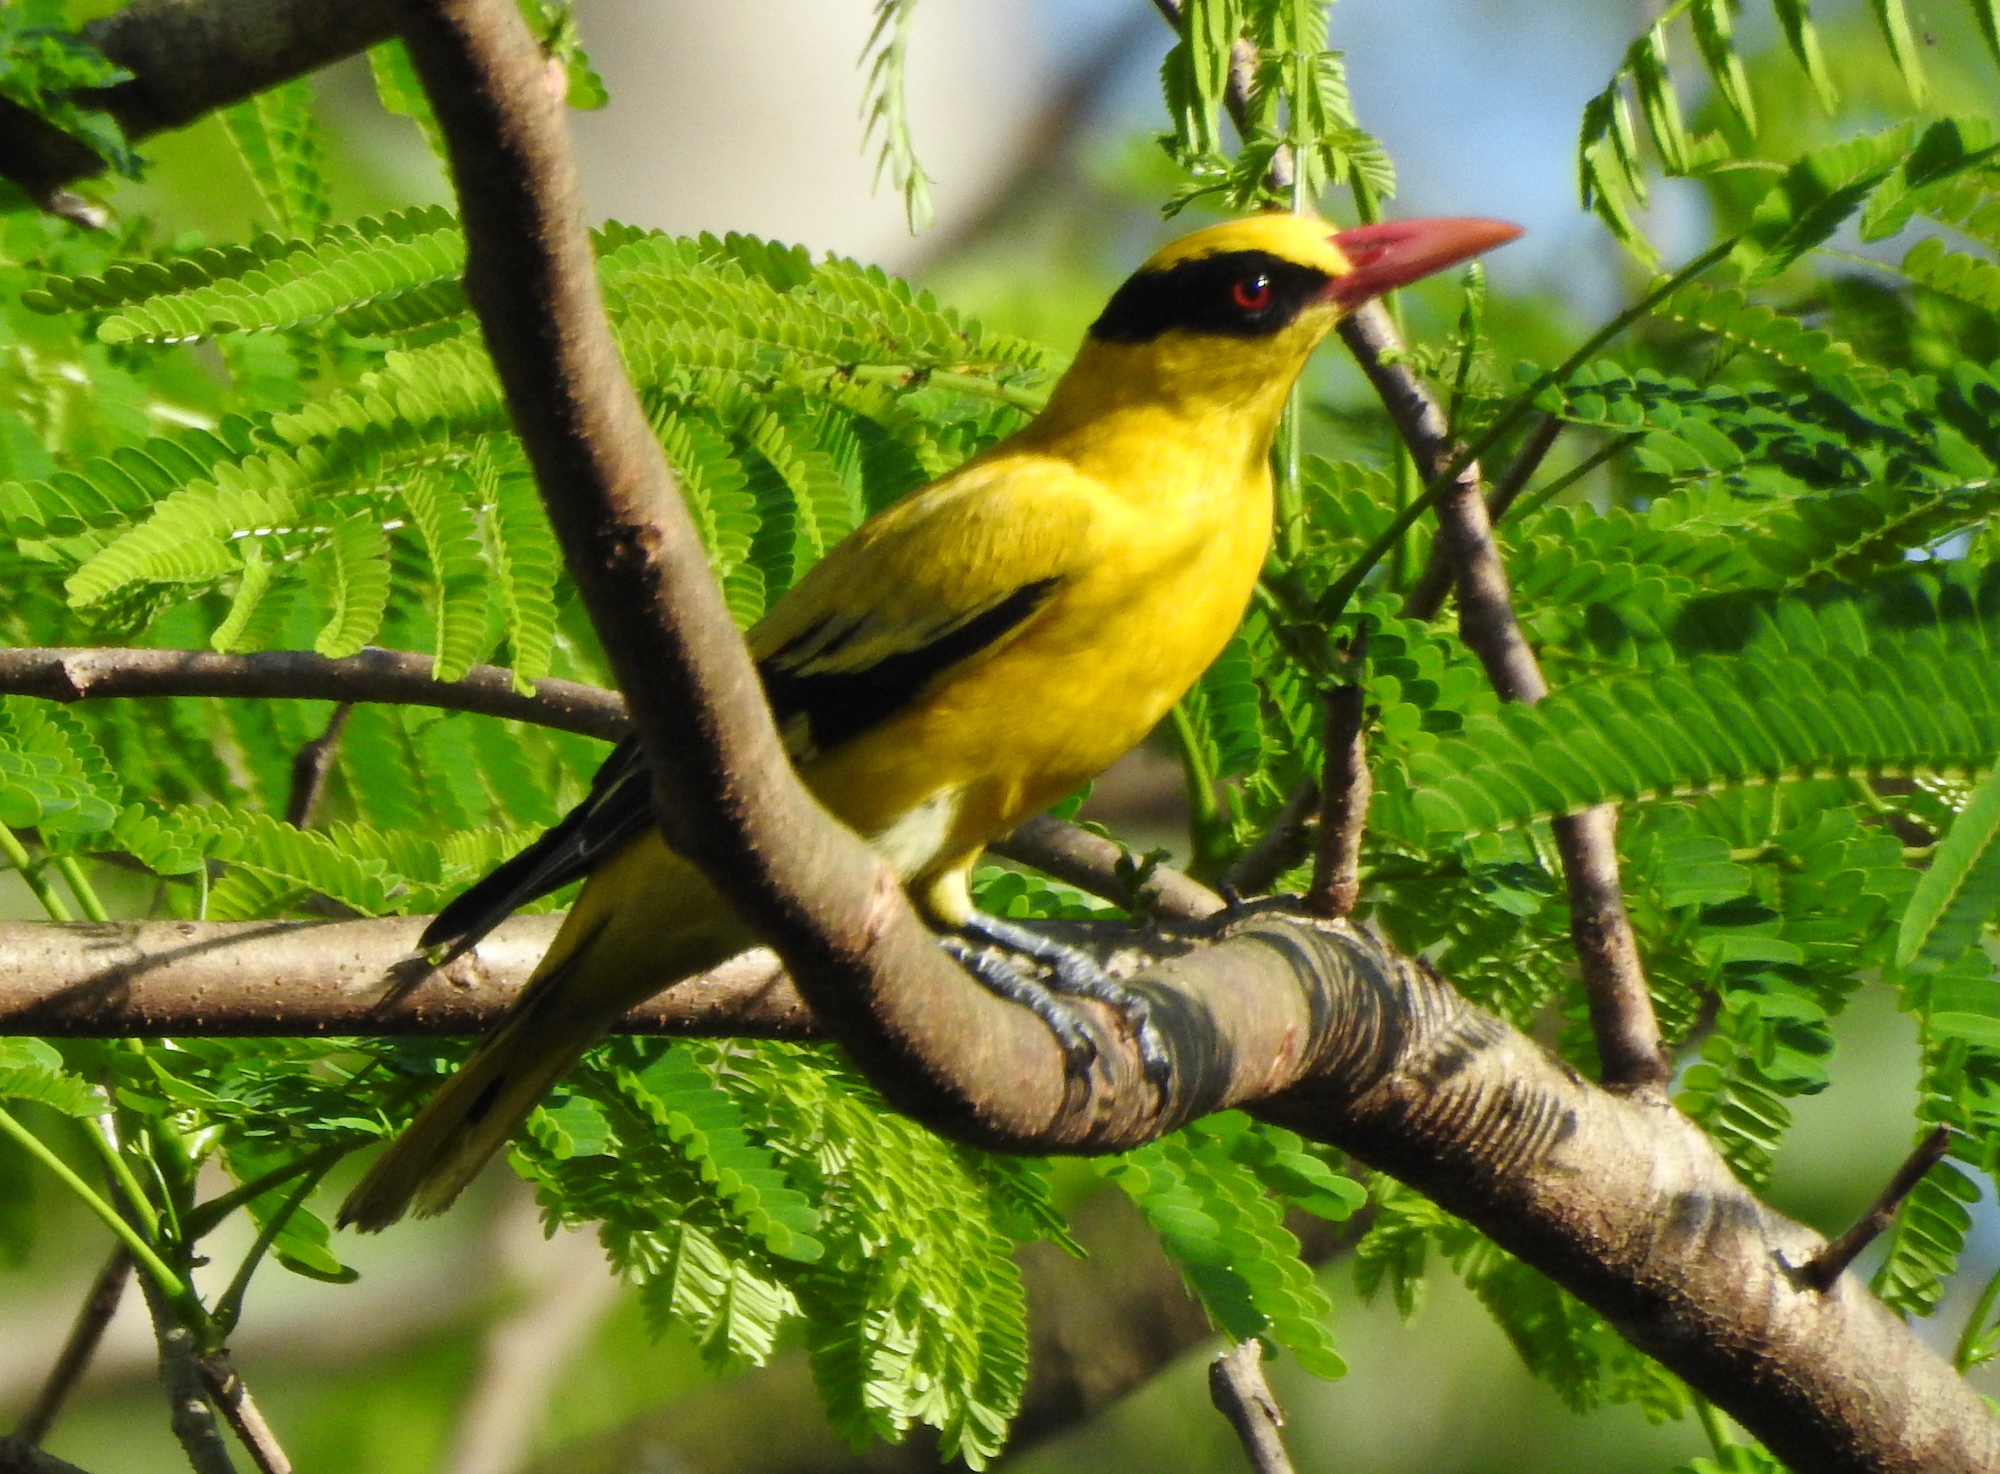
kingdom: Animalia
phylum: Chordata
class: Aves
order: Passeriformes
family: Oriolidae
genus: Oriolus
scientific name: Oriolus chinensis
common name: Black-naped oriole
